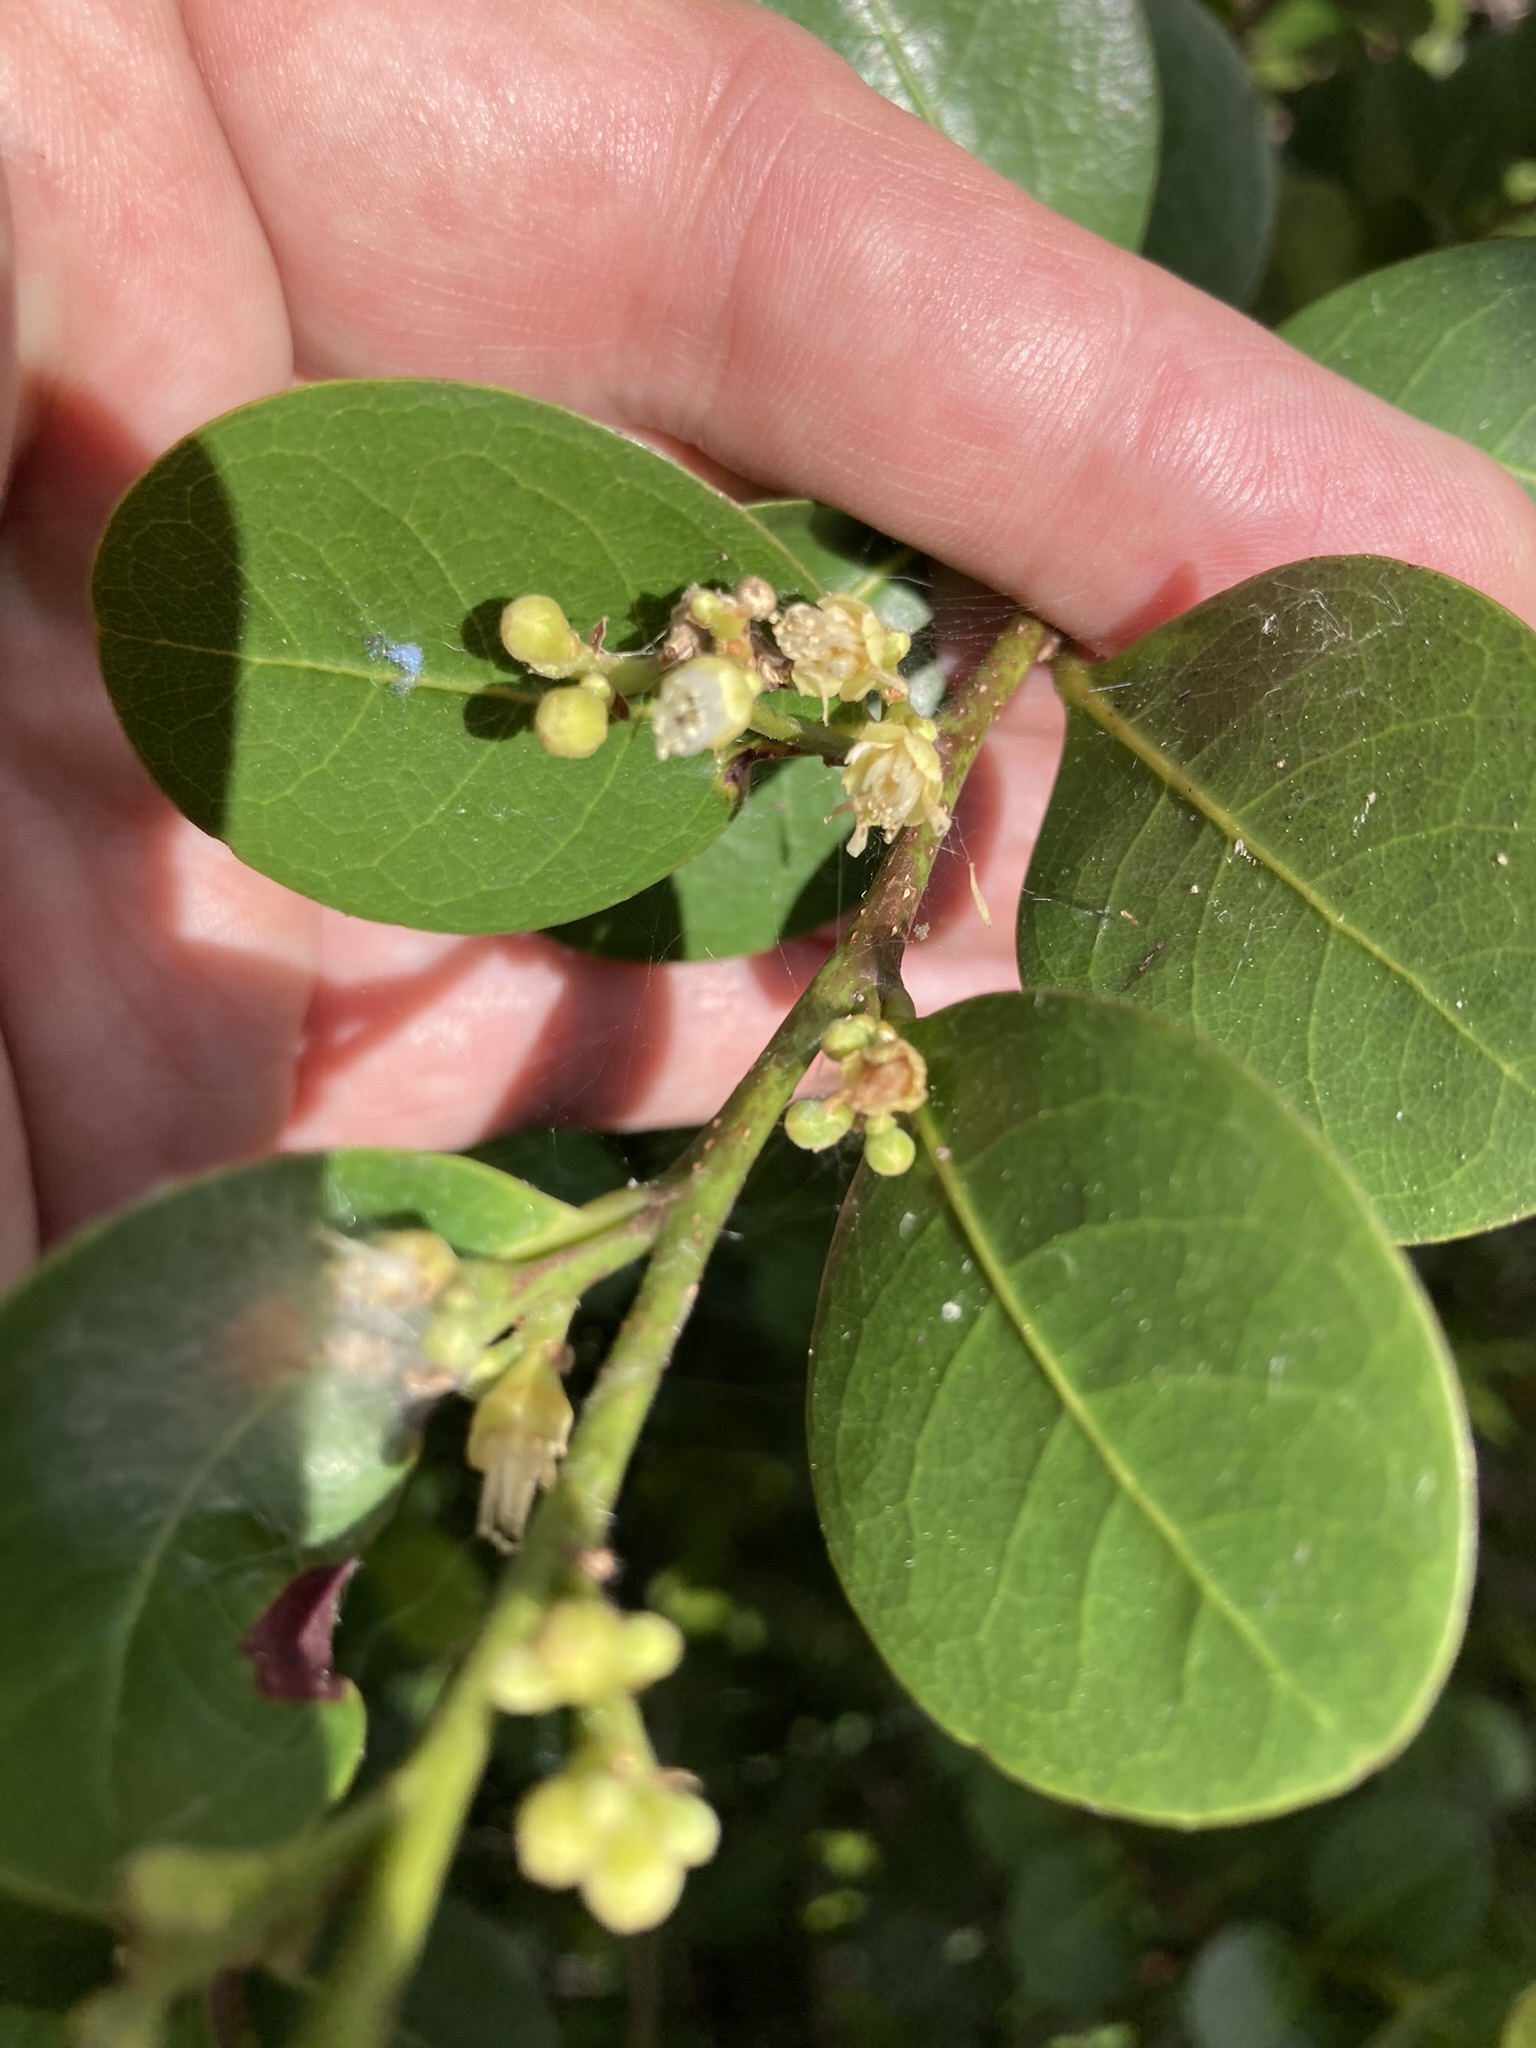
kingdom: Plantae
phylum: Tracheophyta
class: Magnoliopsida
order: Malpighiales
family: Chrysobalanaceae
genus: Chrysobalanus
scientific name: Chrysobalanus icaco
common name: Coco plum
